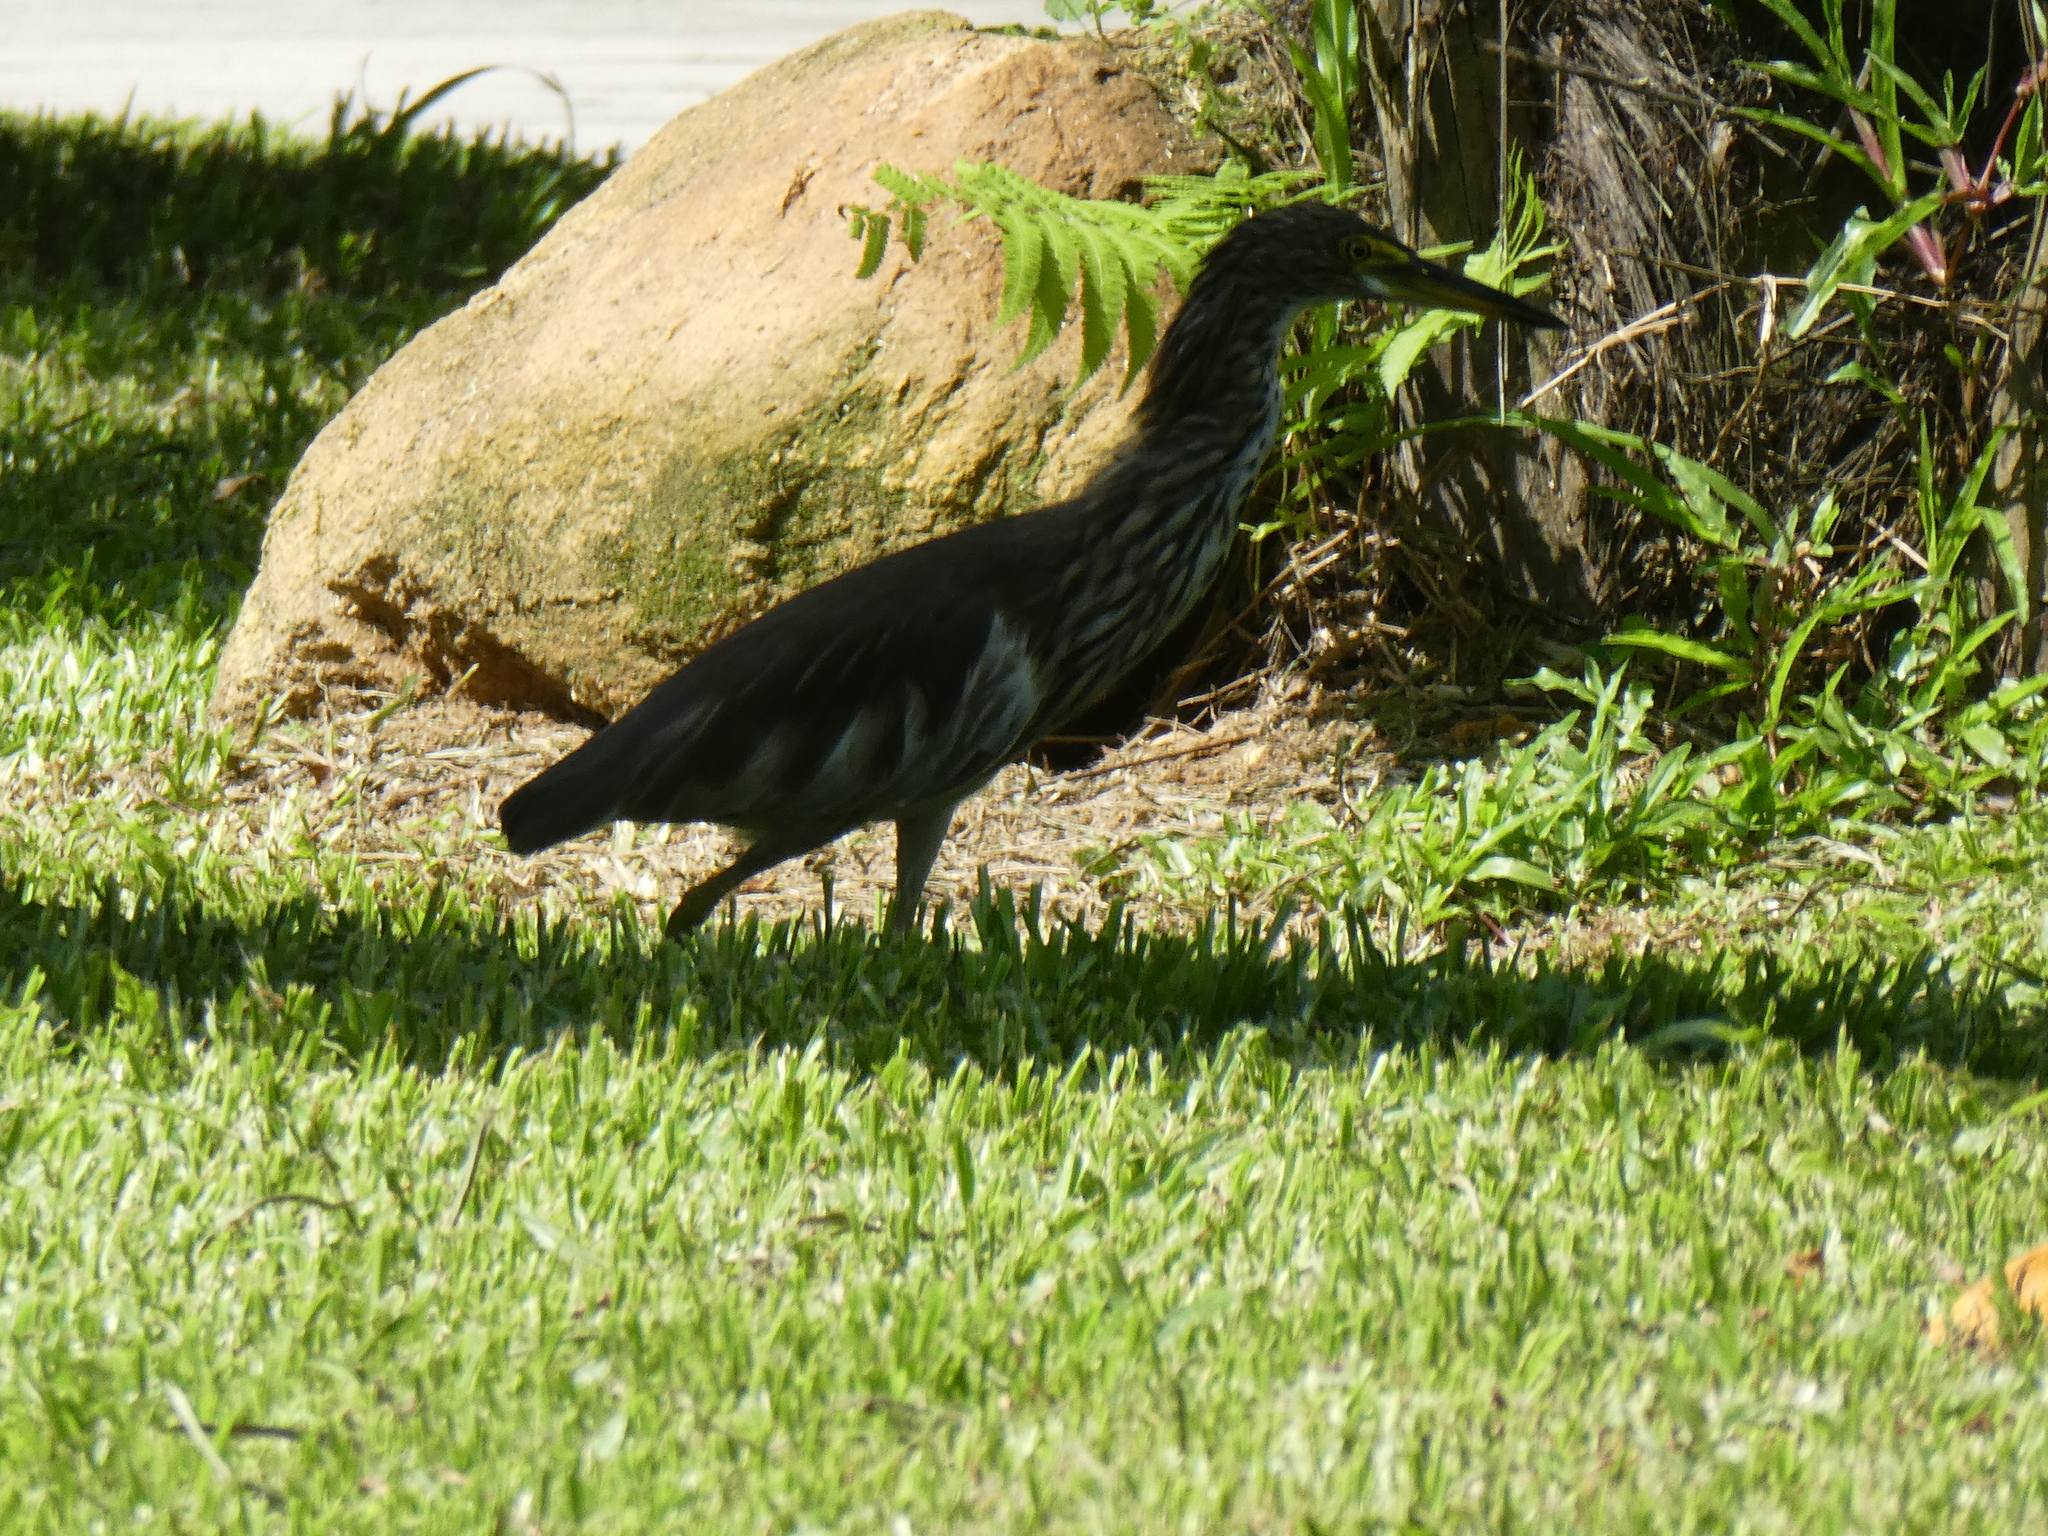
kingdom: Animalia
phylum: Chordata
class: Aves
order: Pelecaniformes
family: Ardeidae
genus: Ardeola
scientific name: Ardeola bacchus
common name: Chinese pond heron
